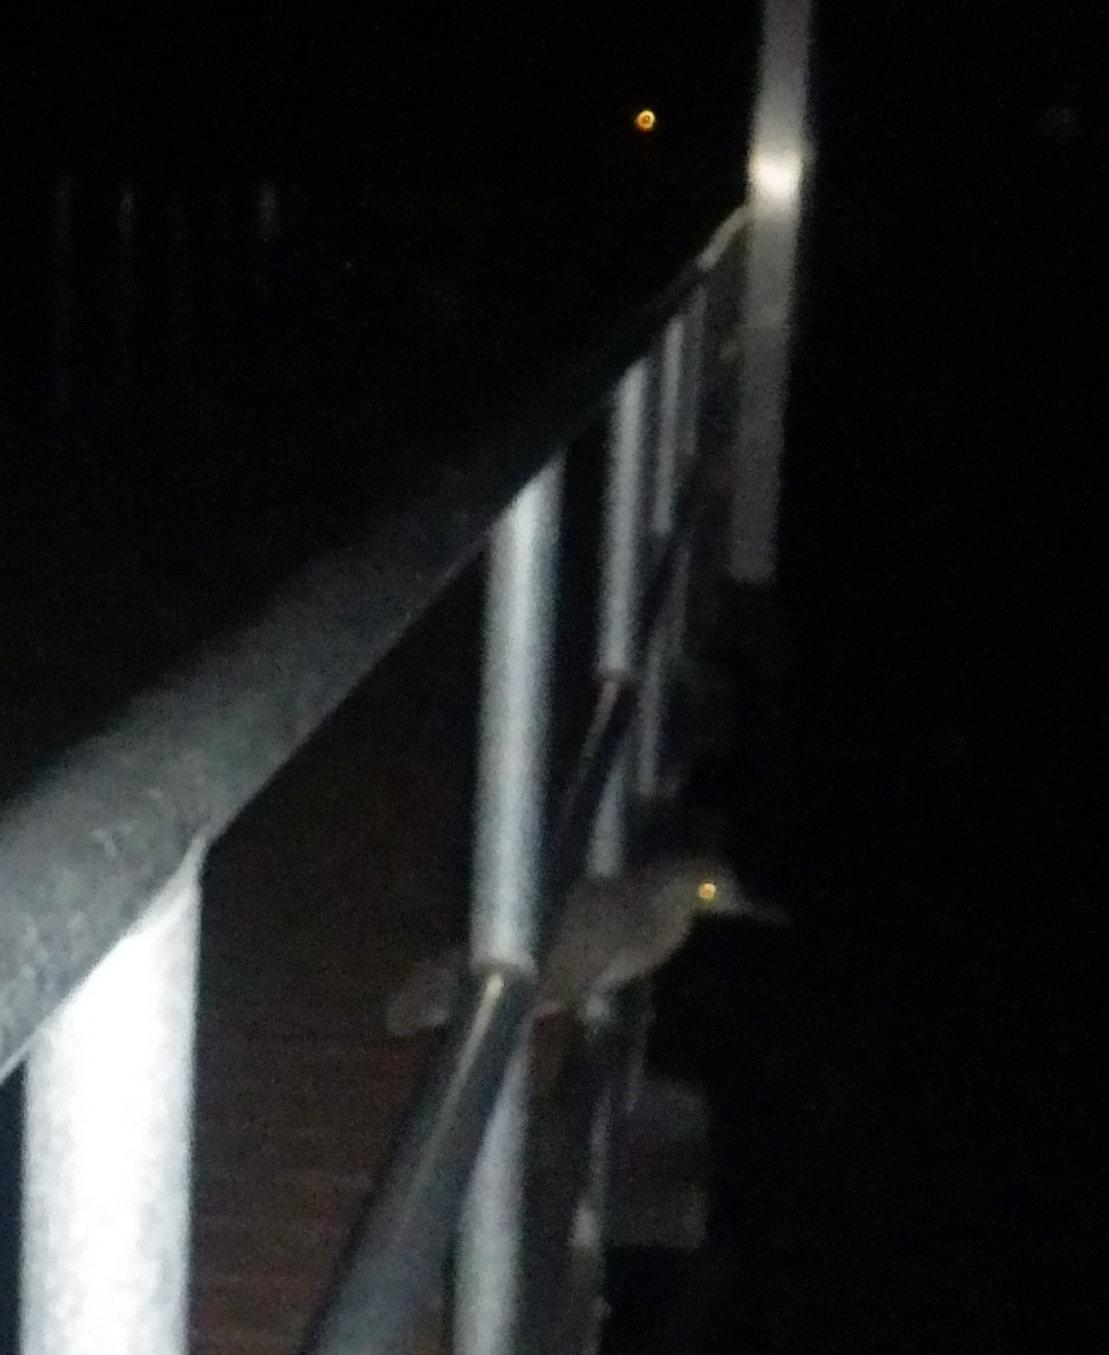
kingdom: Animalia
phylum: Chordata
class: Aves
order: Pelecaniformes
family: Ardeidae
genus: Nyctanassa
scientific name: Nyctanassa violacea
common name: Yellow-crowned night heron
